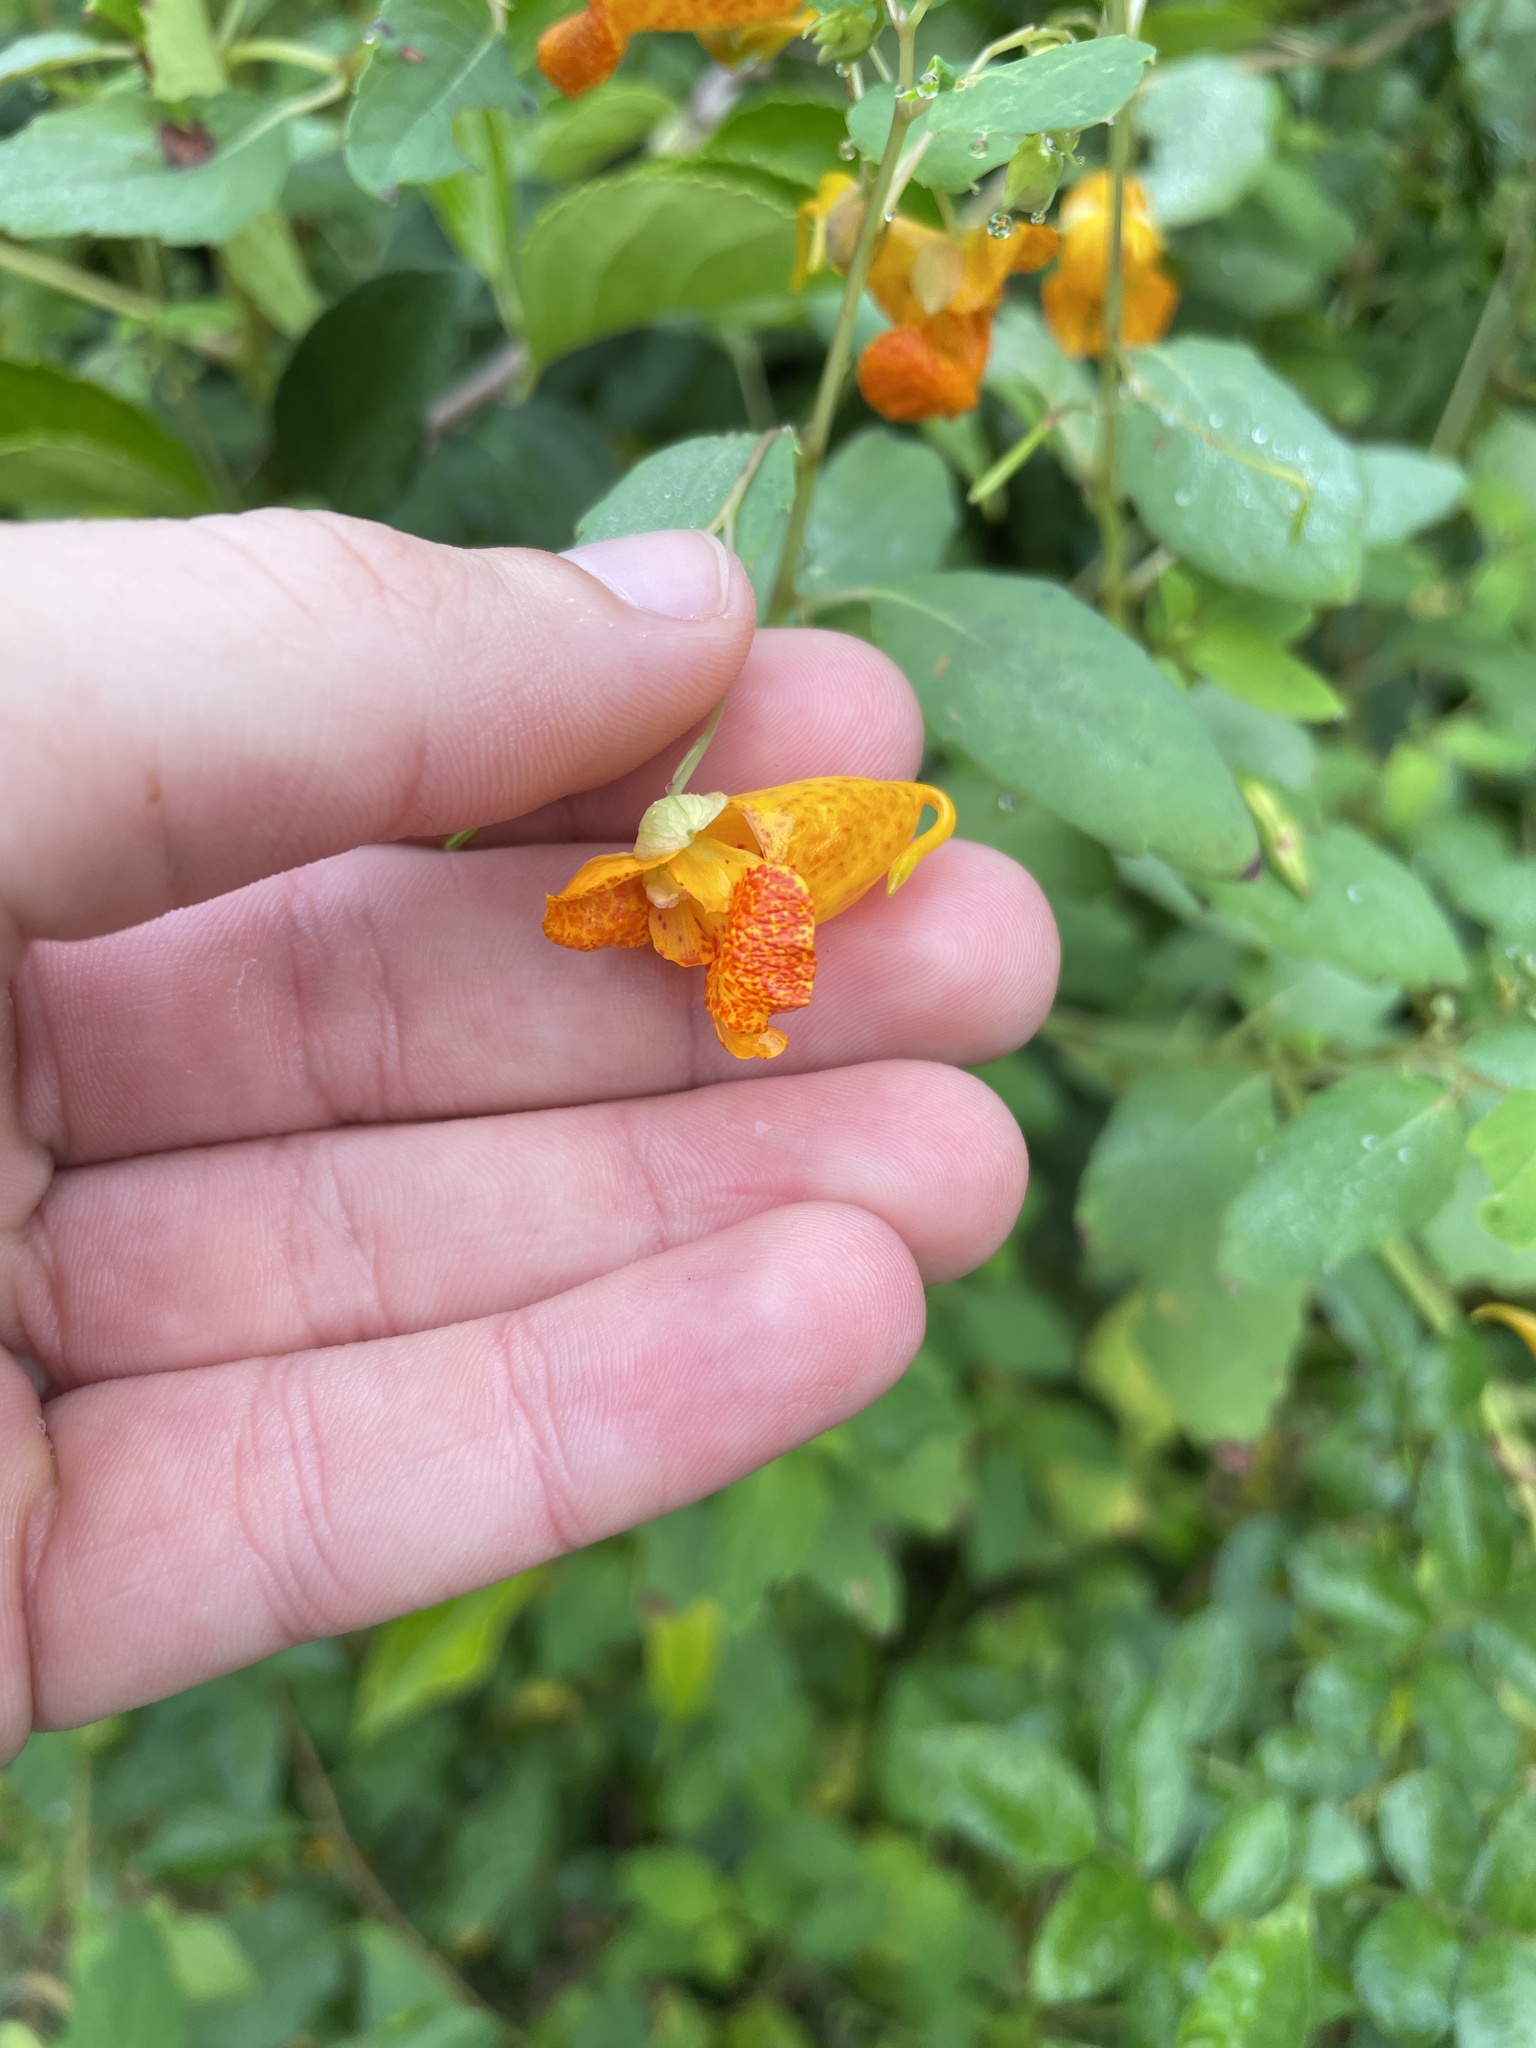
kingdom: Plantae
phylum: Tracheophyta
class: Magnoliopsida
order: Ericales
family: Balsaminaceae
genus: Impatiens
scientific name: Impatiens capensis
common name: Orange balsam
